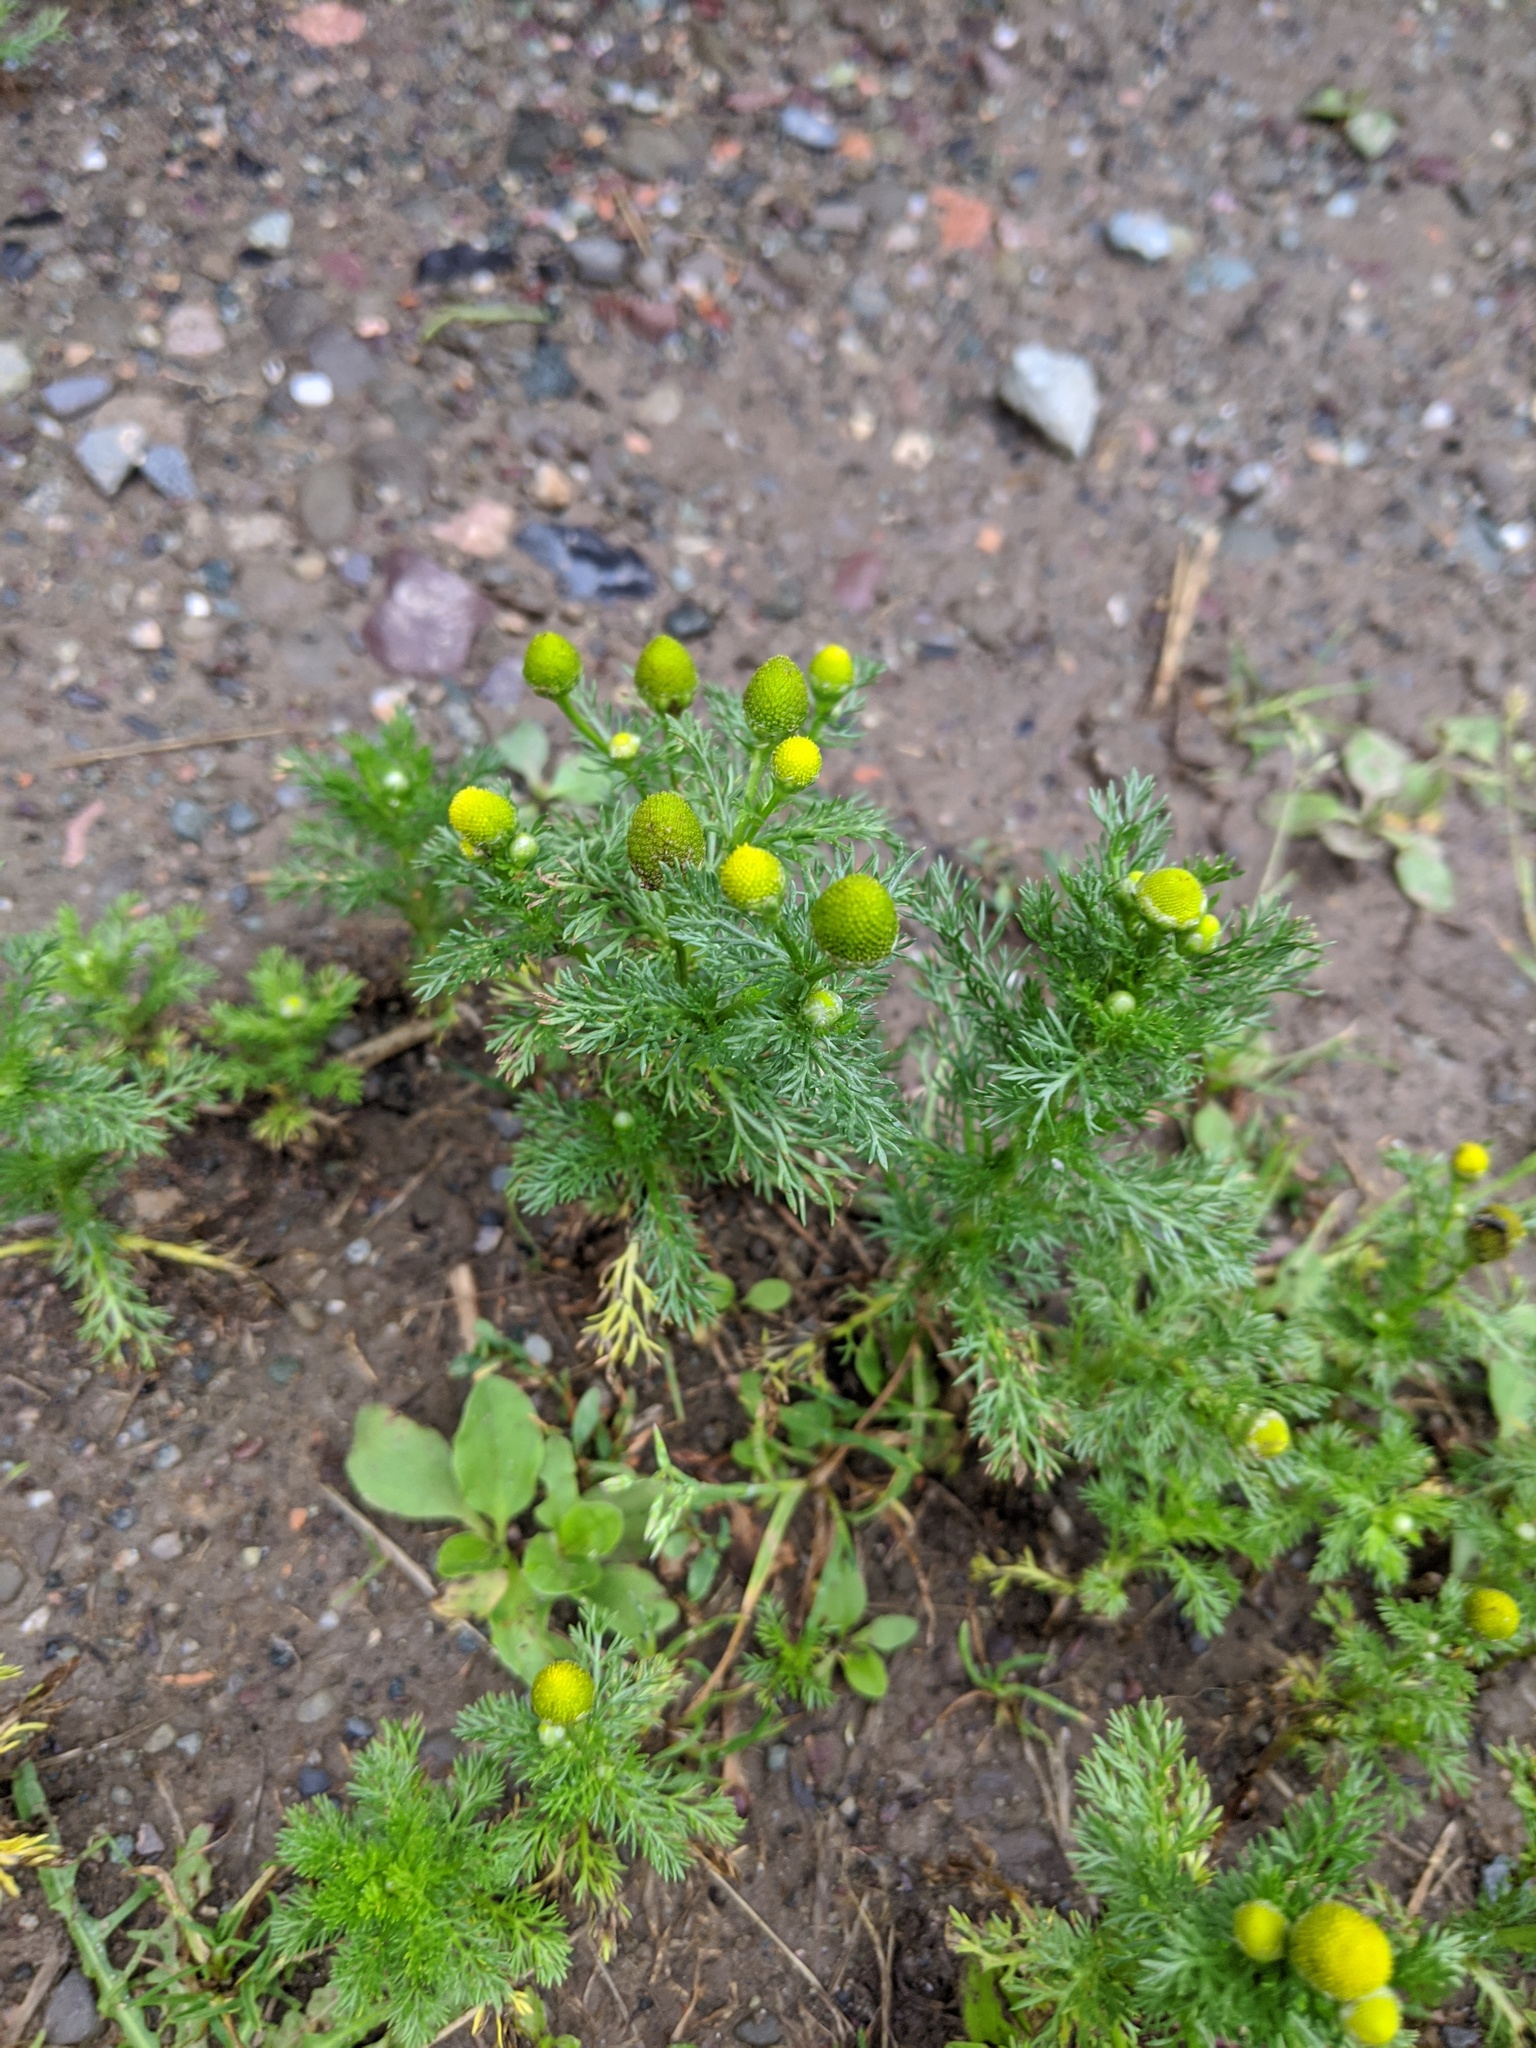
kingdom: Plantae
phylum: Tracheophyta
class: Magnoliopsida
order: Asterales
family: Asteraceae
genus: Matricaria
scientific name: Matricaria discoidea
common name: Disc mayweed
